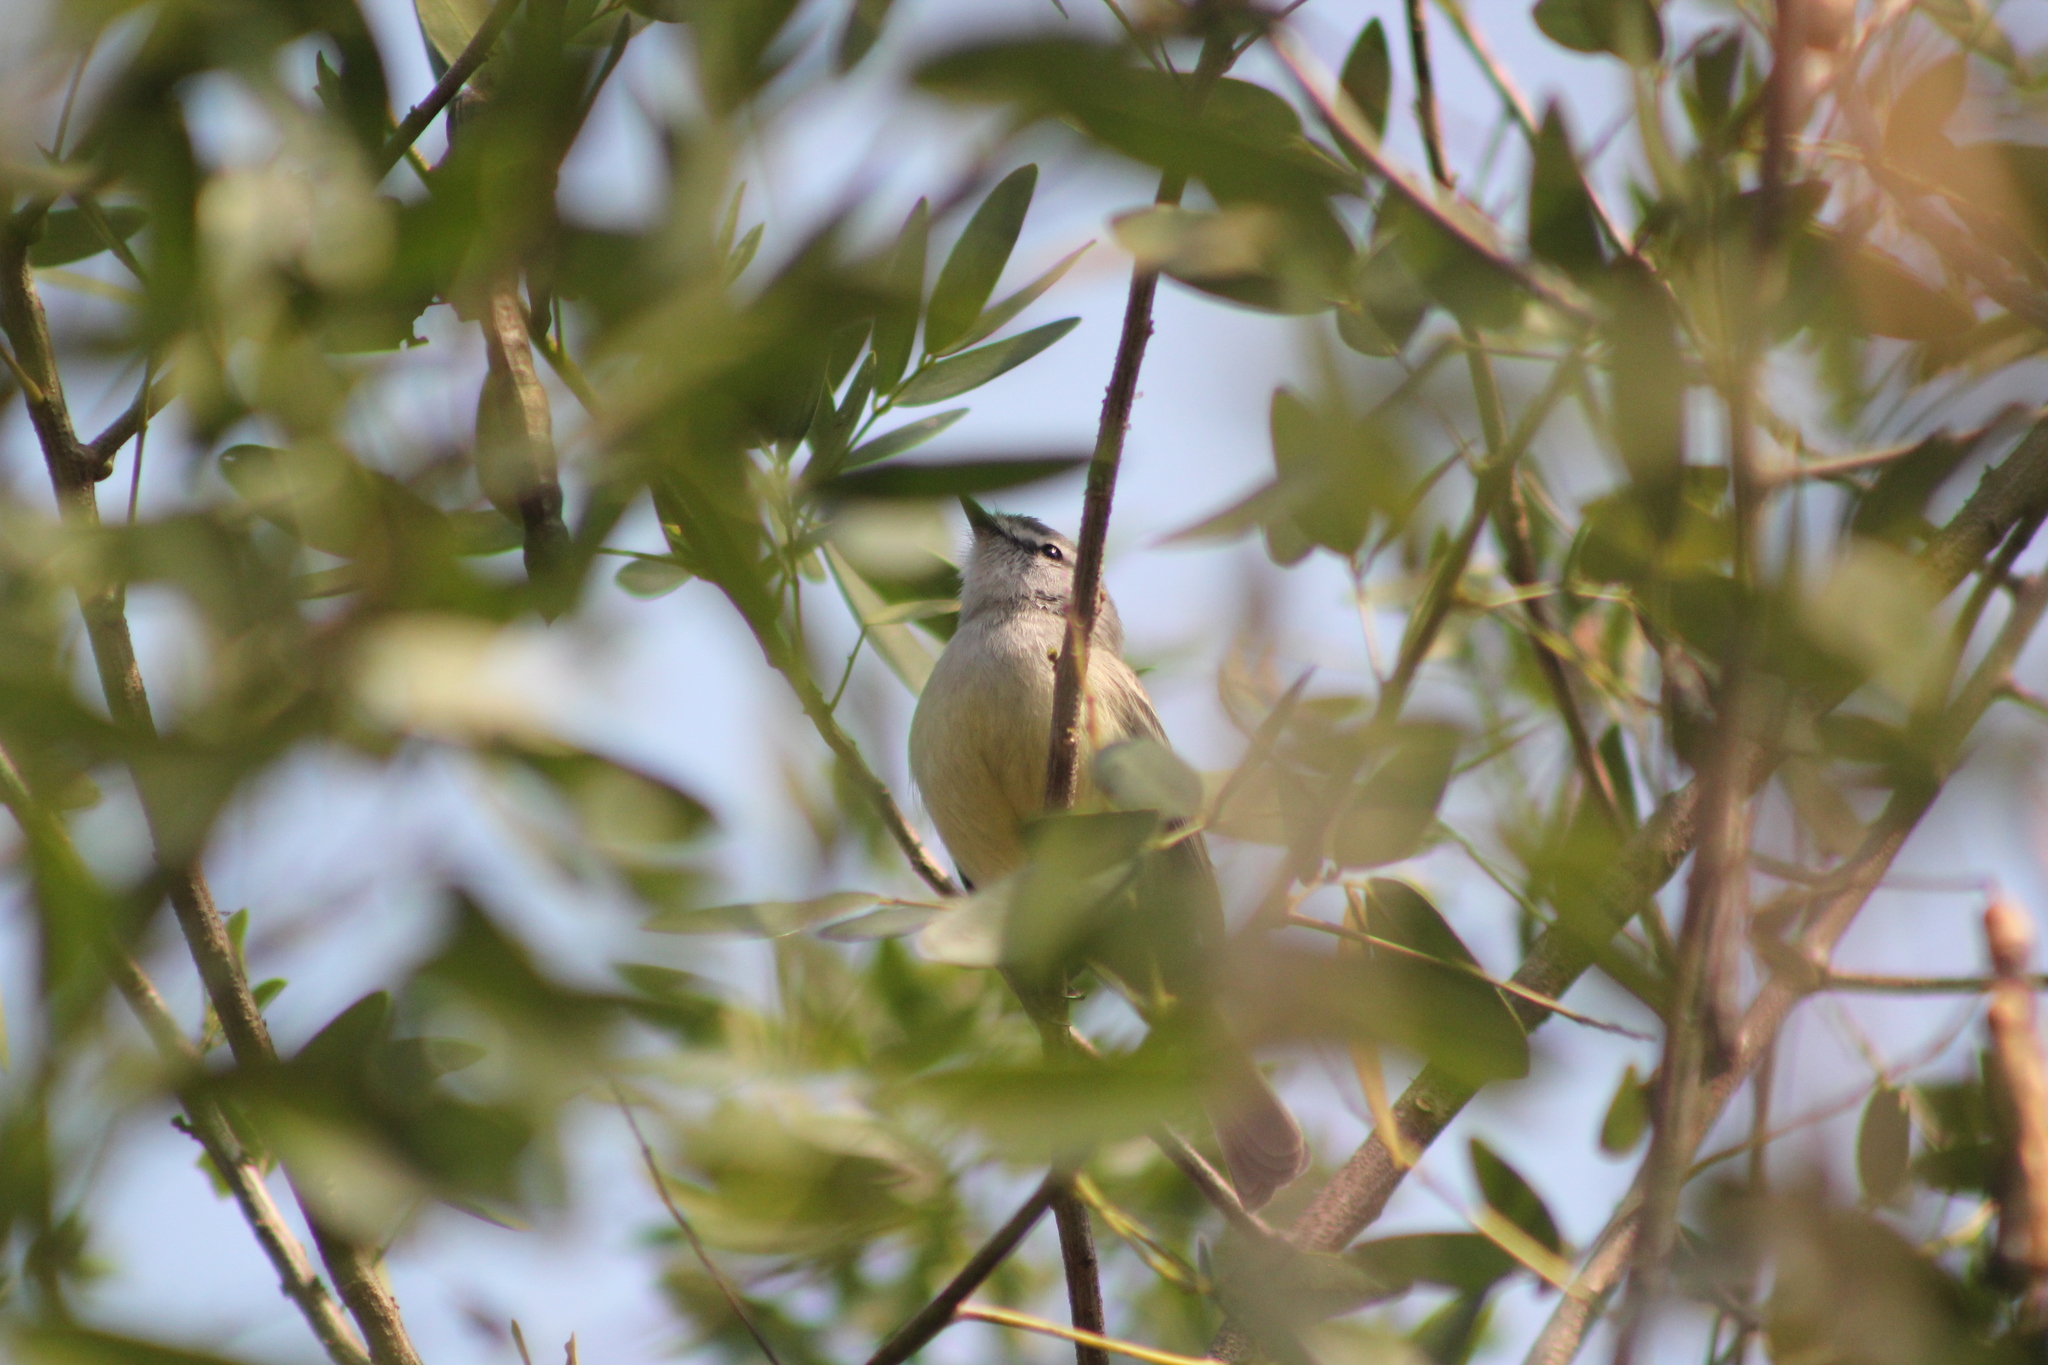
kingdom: Animalia
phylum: Chordata
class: Aves
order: Passeriformes
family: Tyrannidae
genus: Serpophaga
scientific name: Serpophaga griseicapilla
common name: Straneck's tyrannulet
